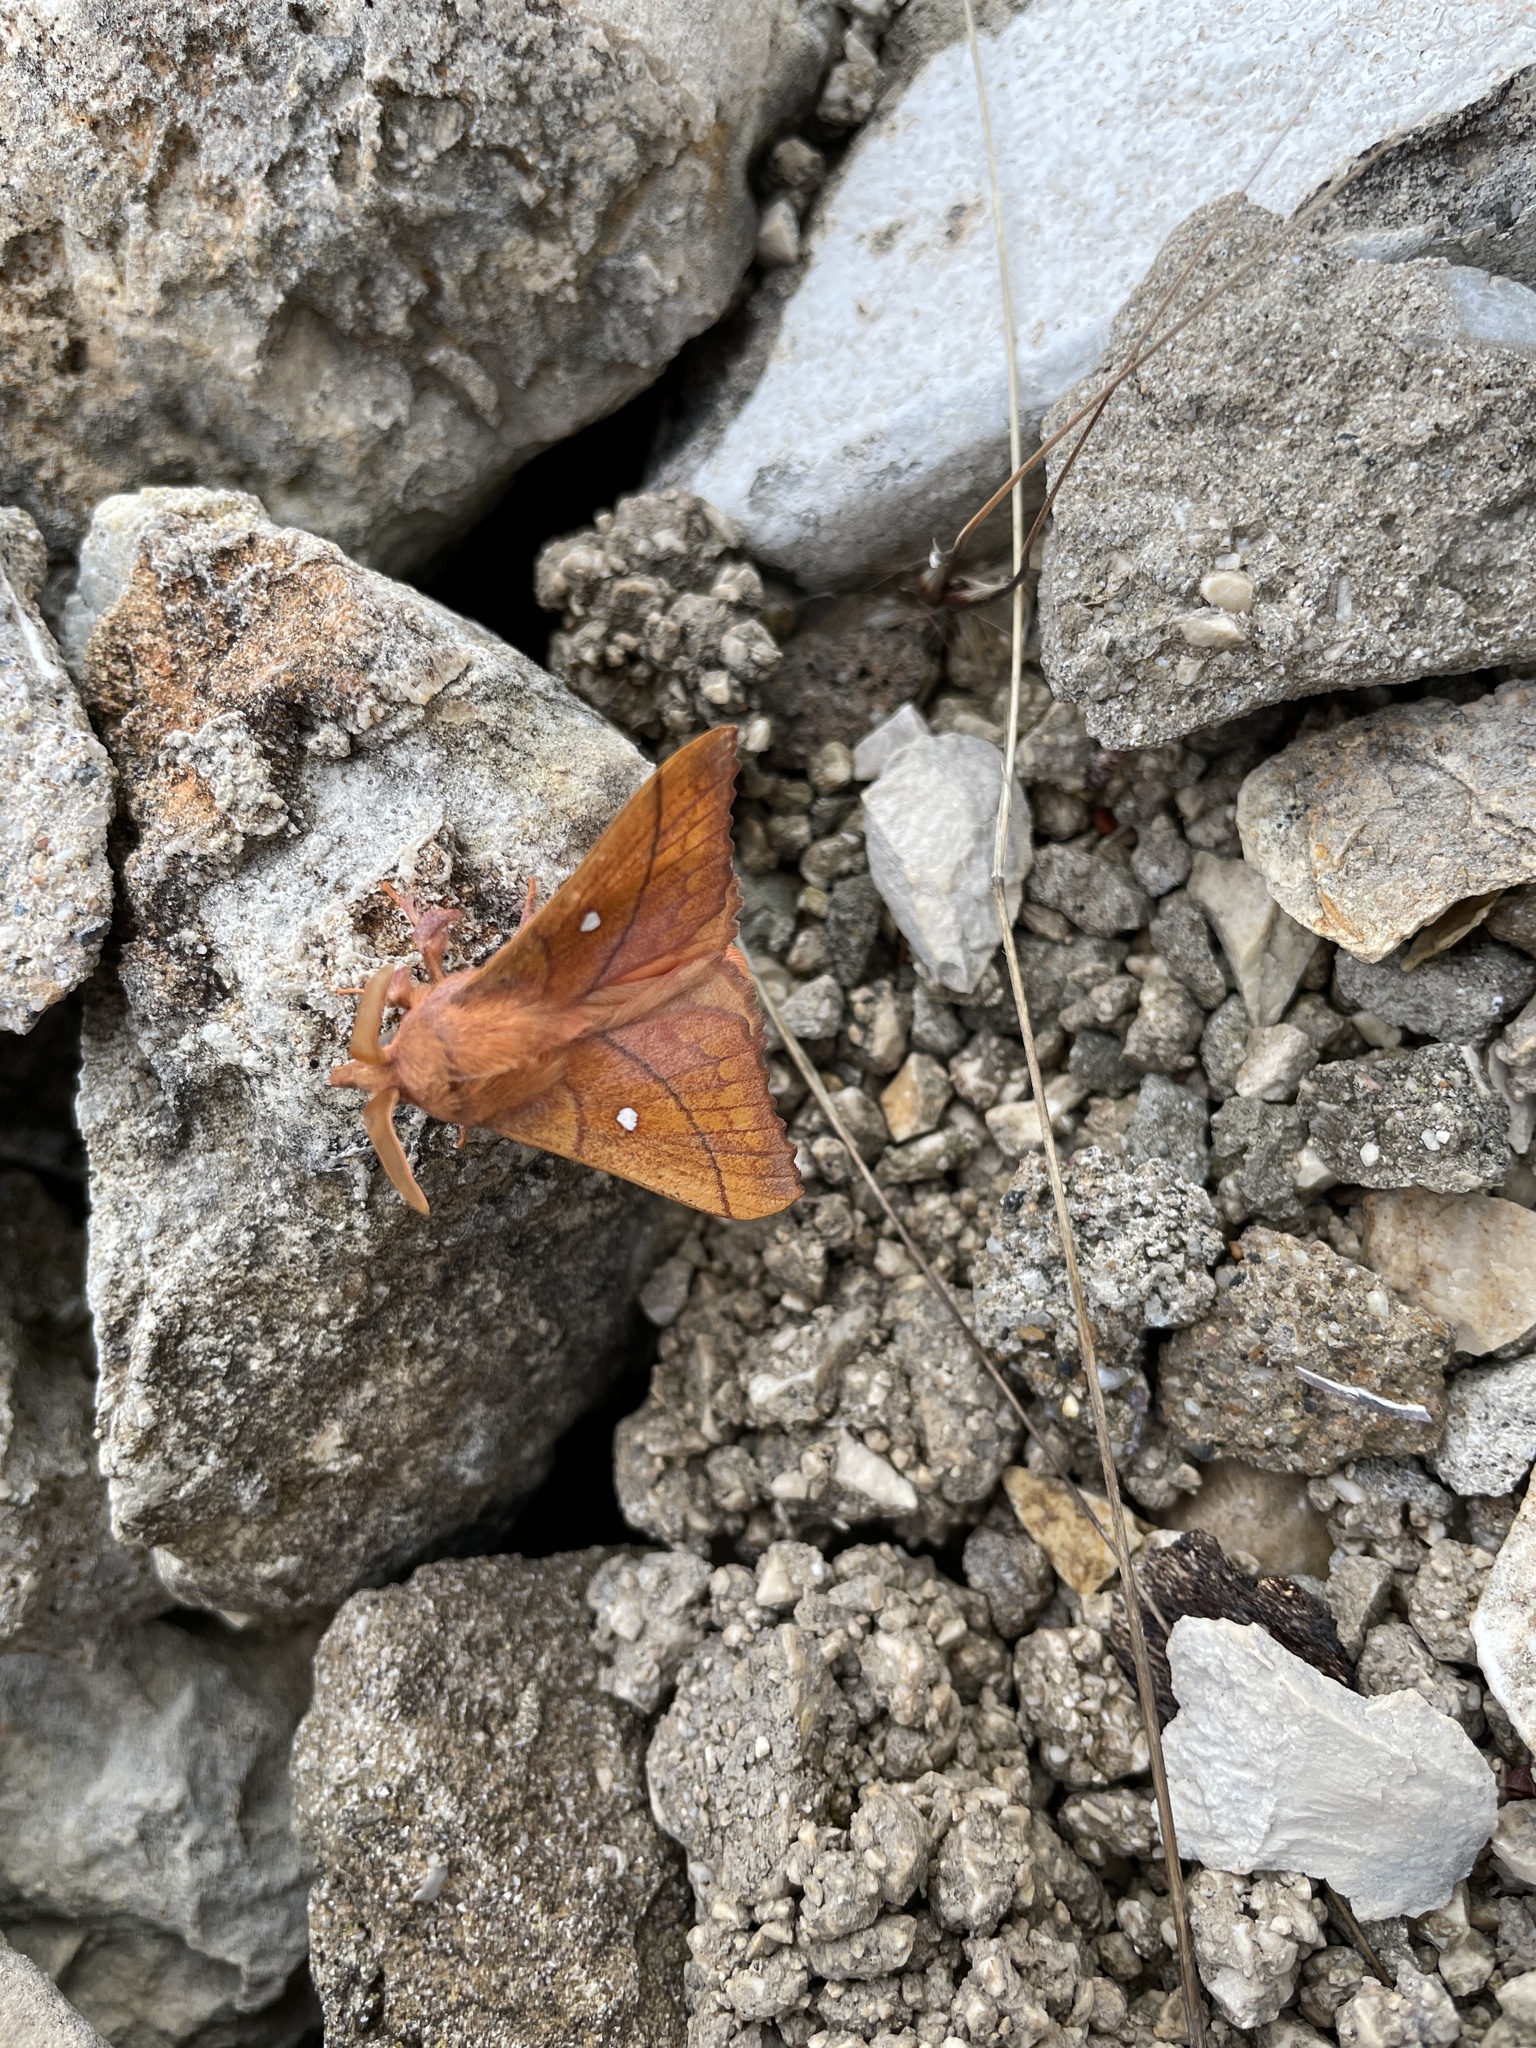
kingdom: Animalia
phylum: Arthropoda
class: Insecta
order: Lepidoptera
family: Lasiocampidae
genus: Odonestis
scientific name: Odonestis pruni
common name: Plum lappet
